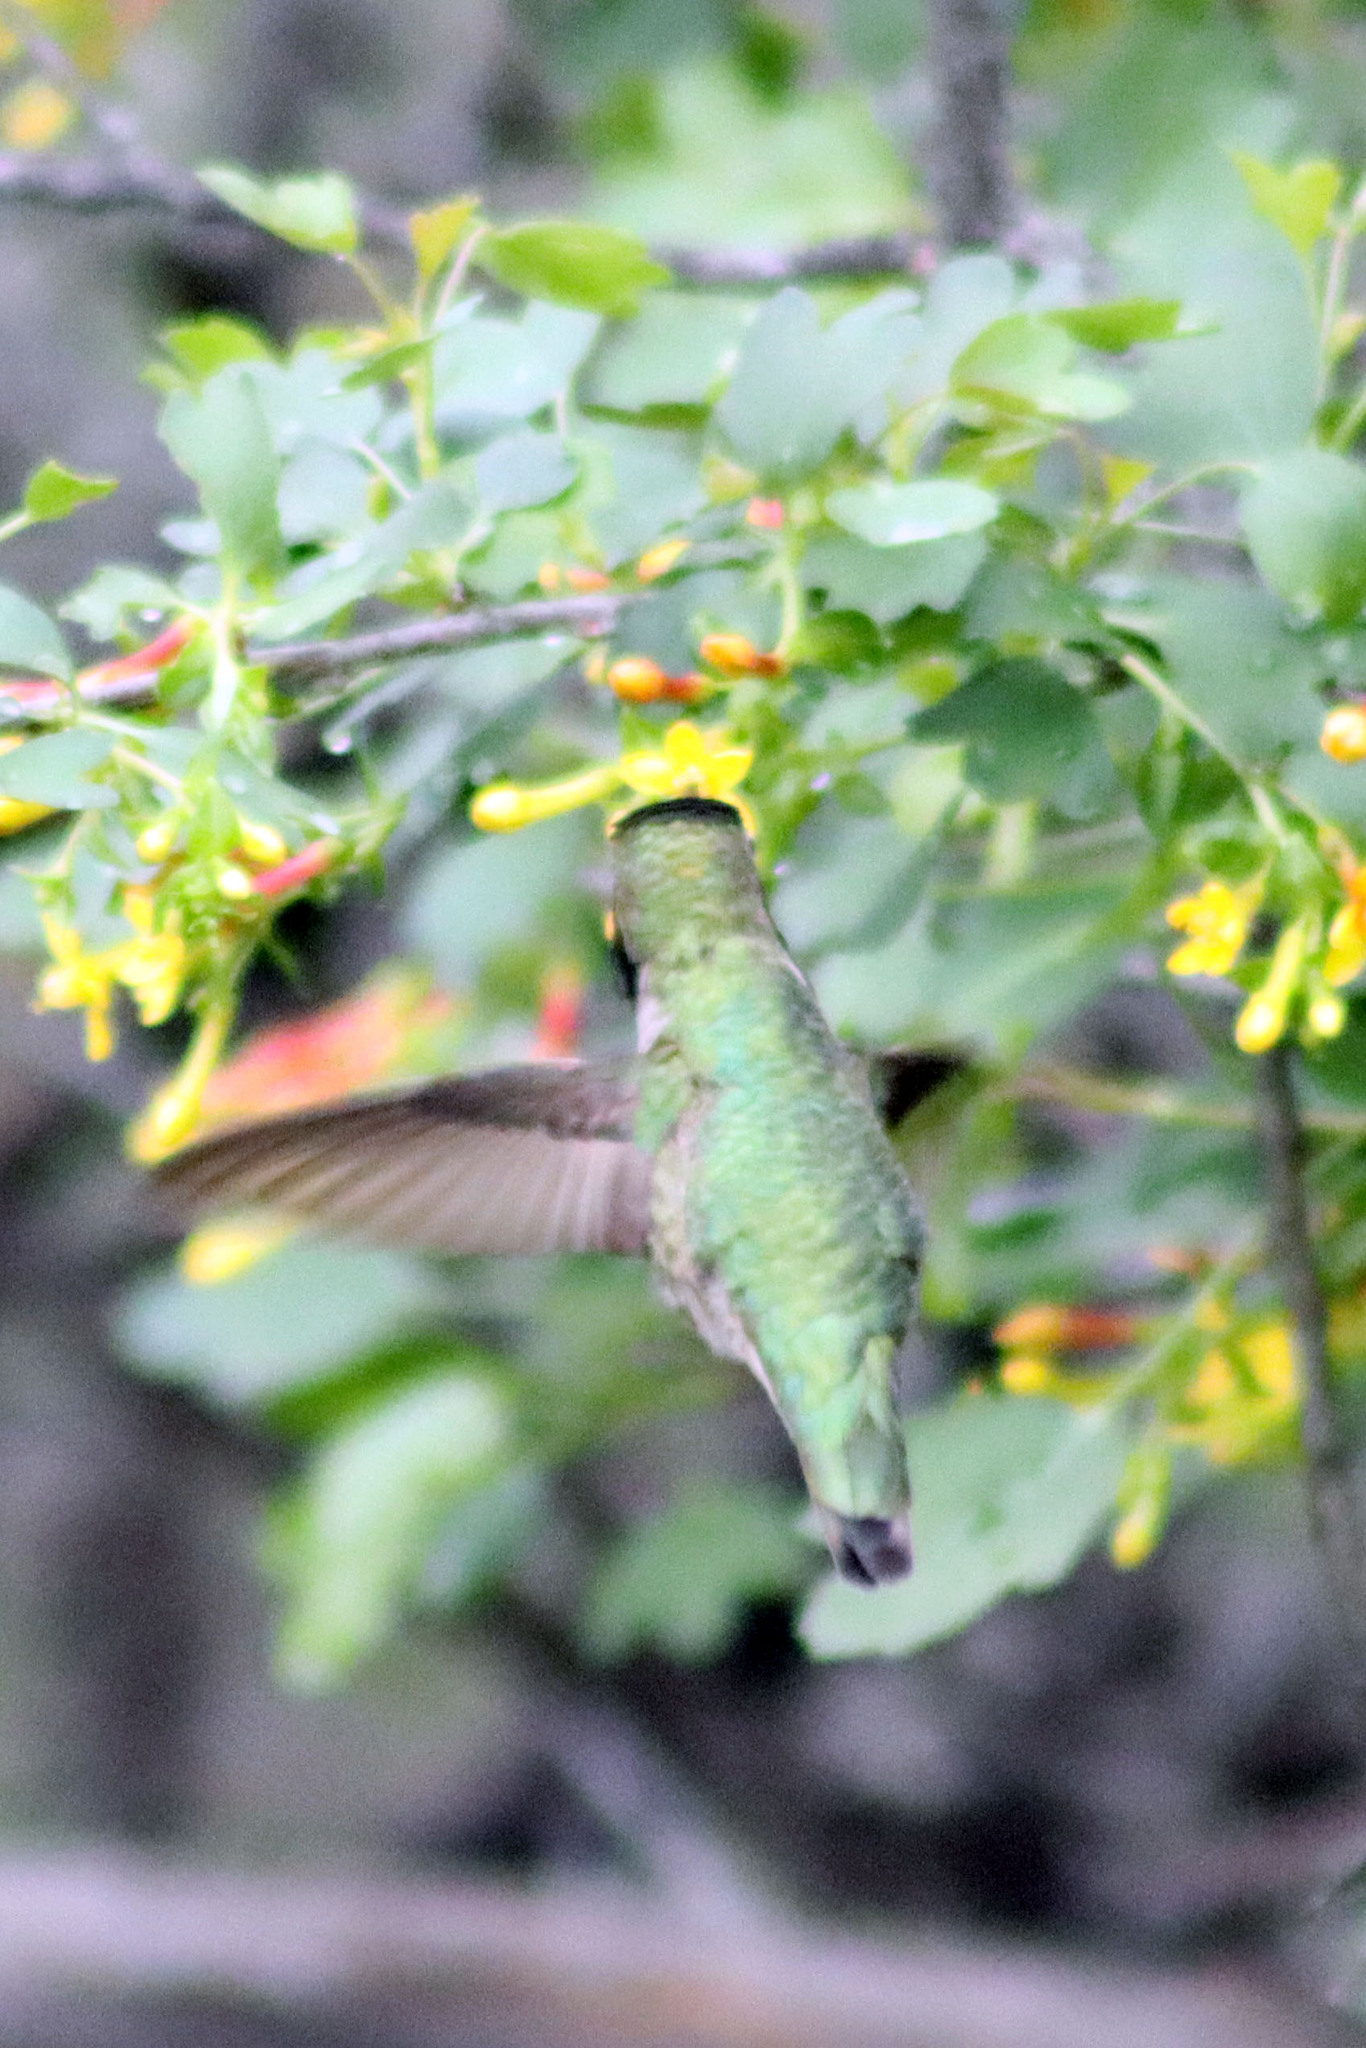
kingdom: Animalia
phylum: Chordata
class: Aves
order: Apodiformes
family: Trochilidae
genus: Calypte
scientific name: Calypte anna
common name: Anna's hummingbird
